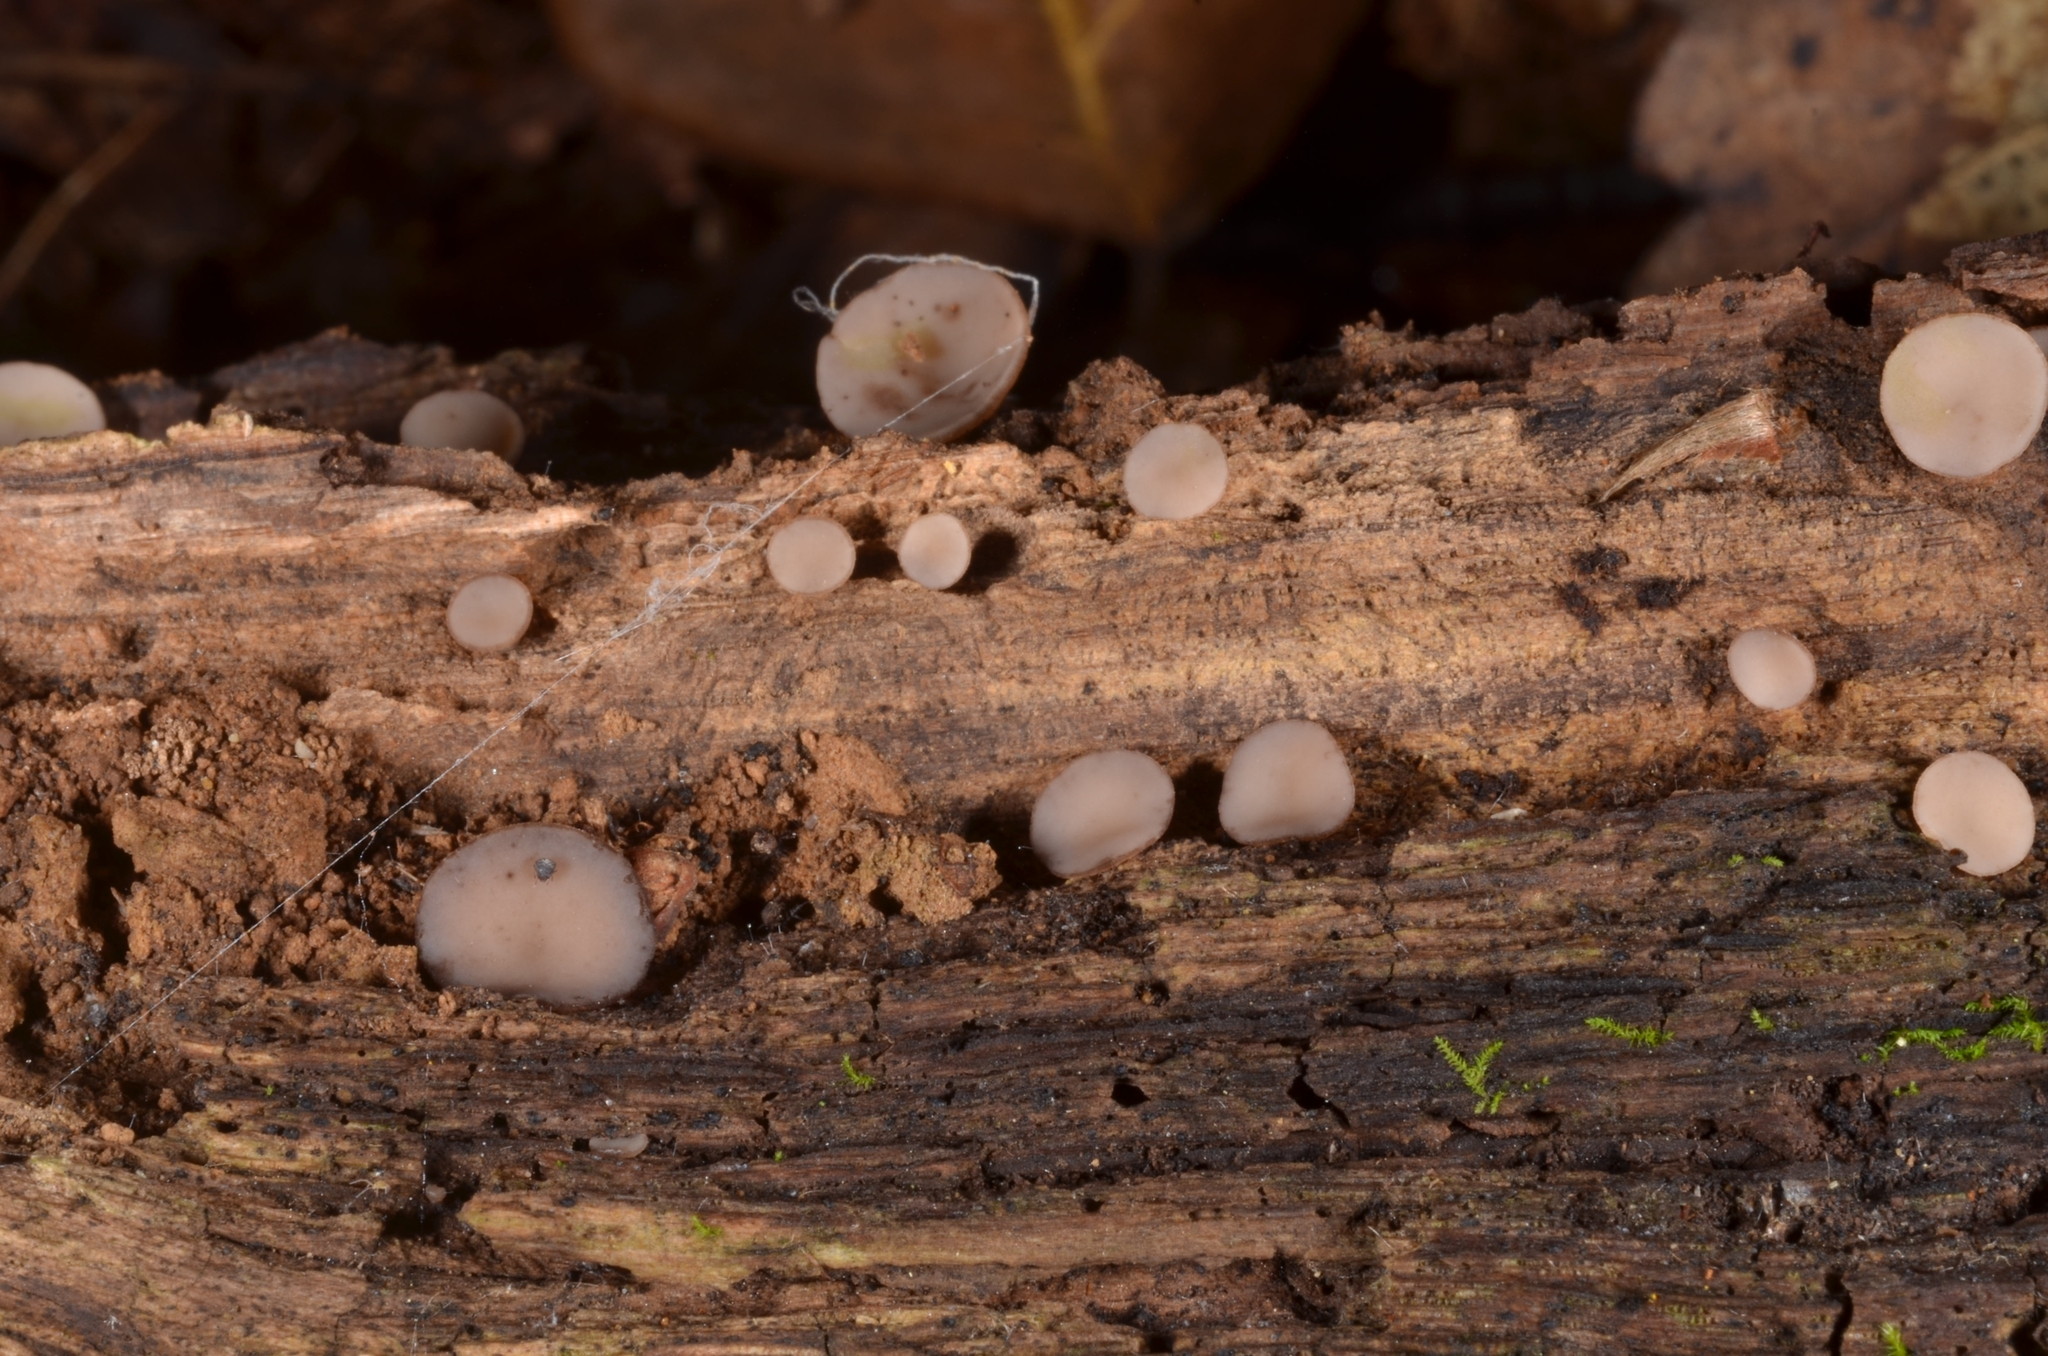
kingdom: Fungi
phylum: Ascomycota
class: Leotiomycetes
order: Helotiales
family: Helotiaceae
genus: Tatraea
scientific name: Tatraea macrospora
